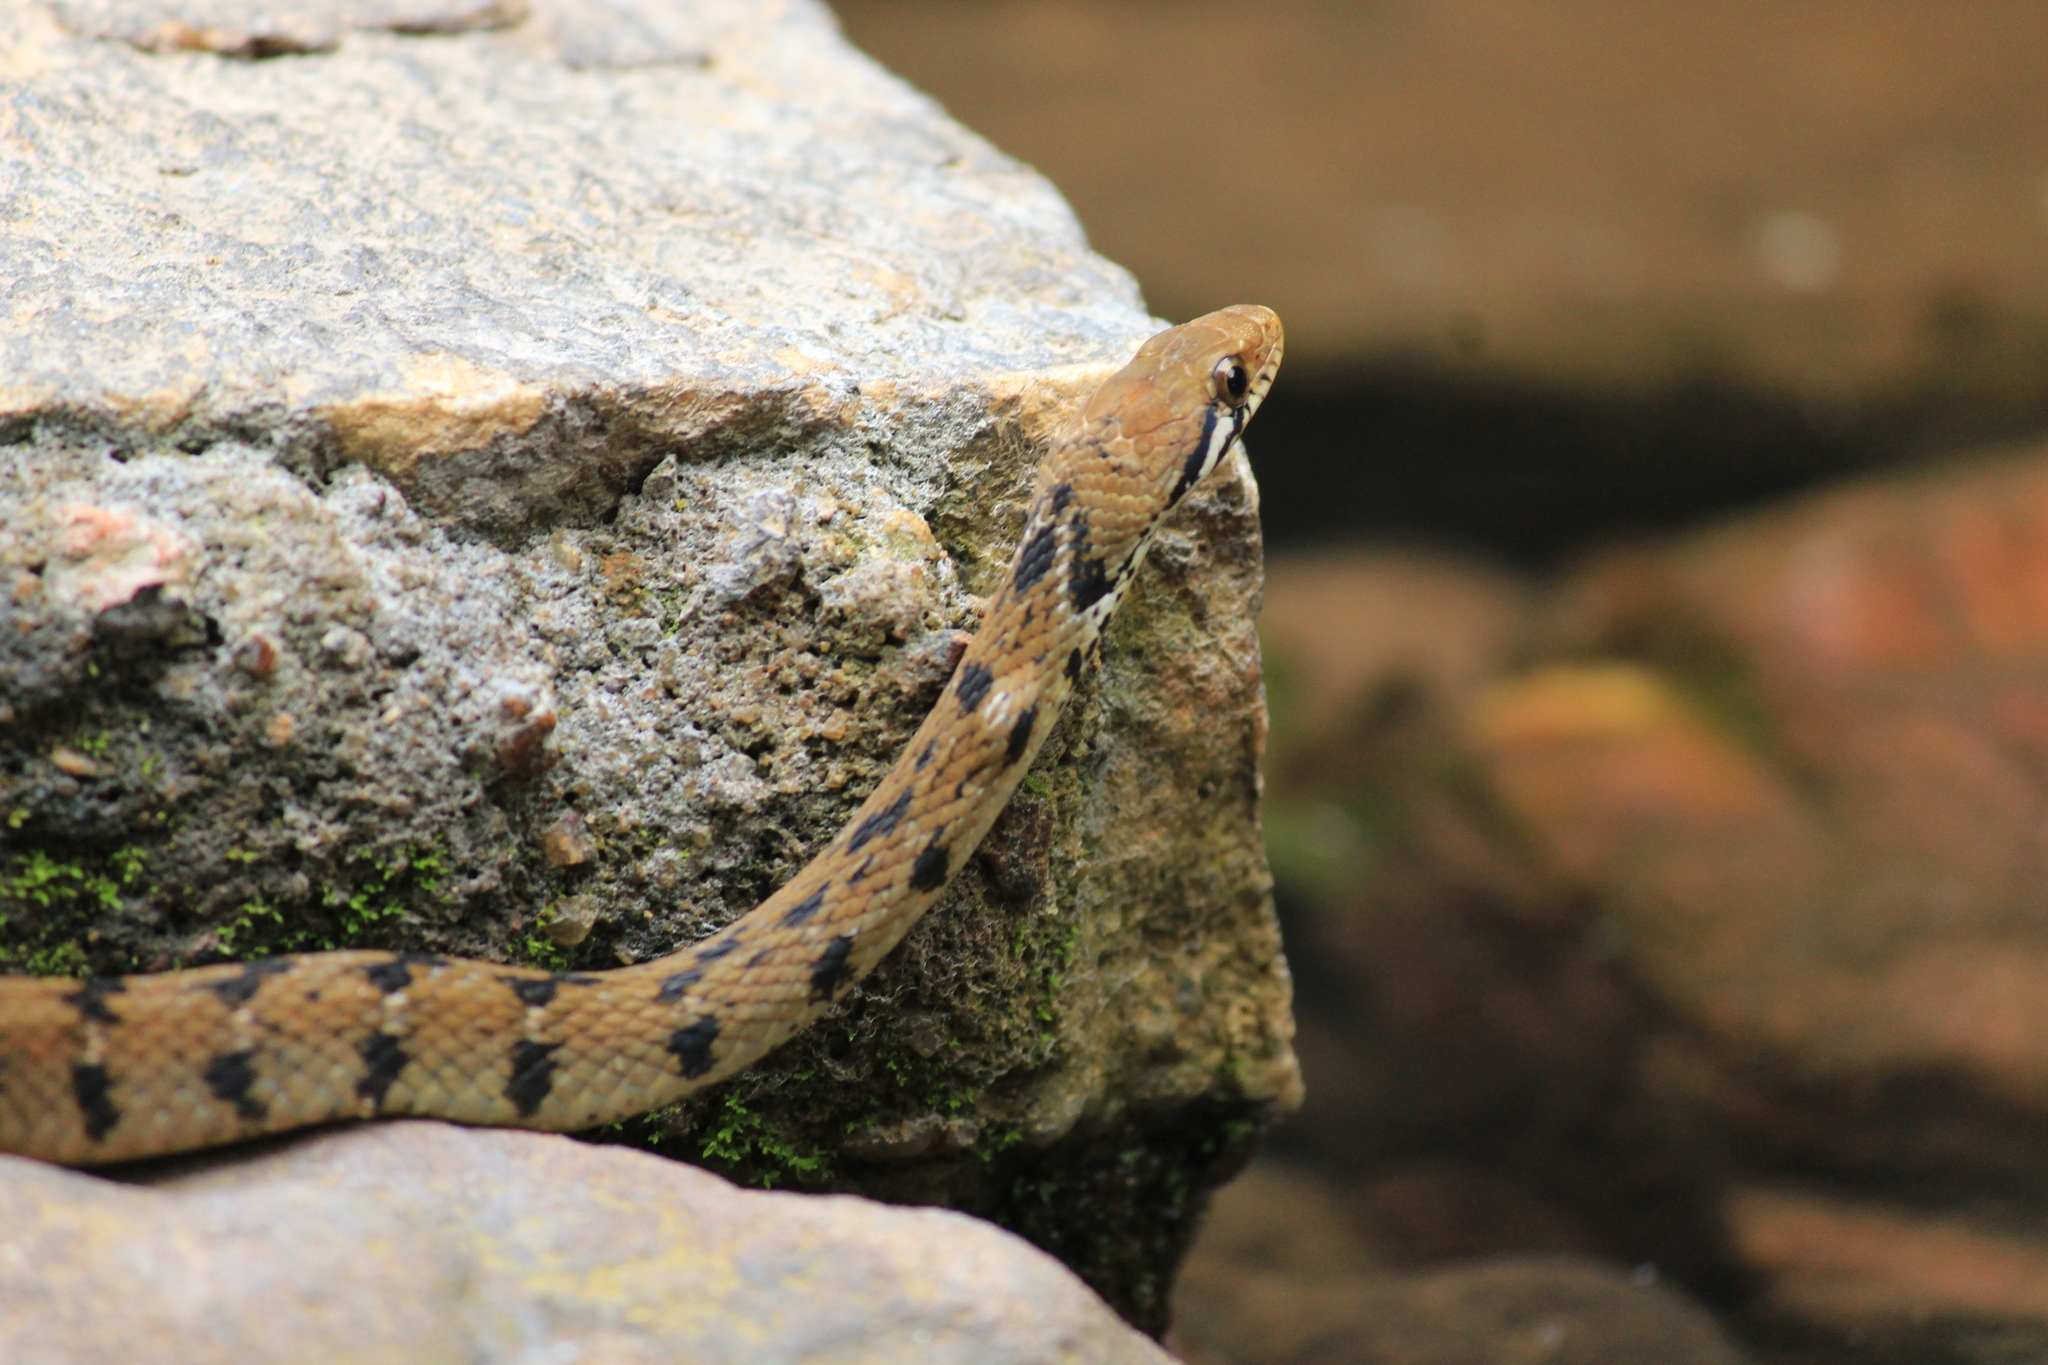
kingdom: Animalia
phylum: Chordata
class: Squamata
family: Colubridae
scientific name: Colubridae
